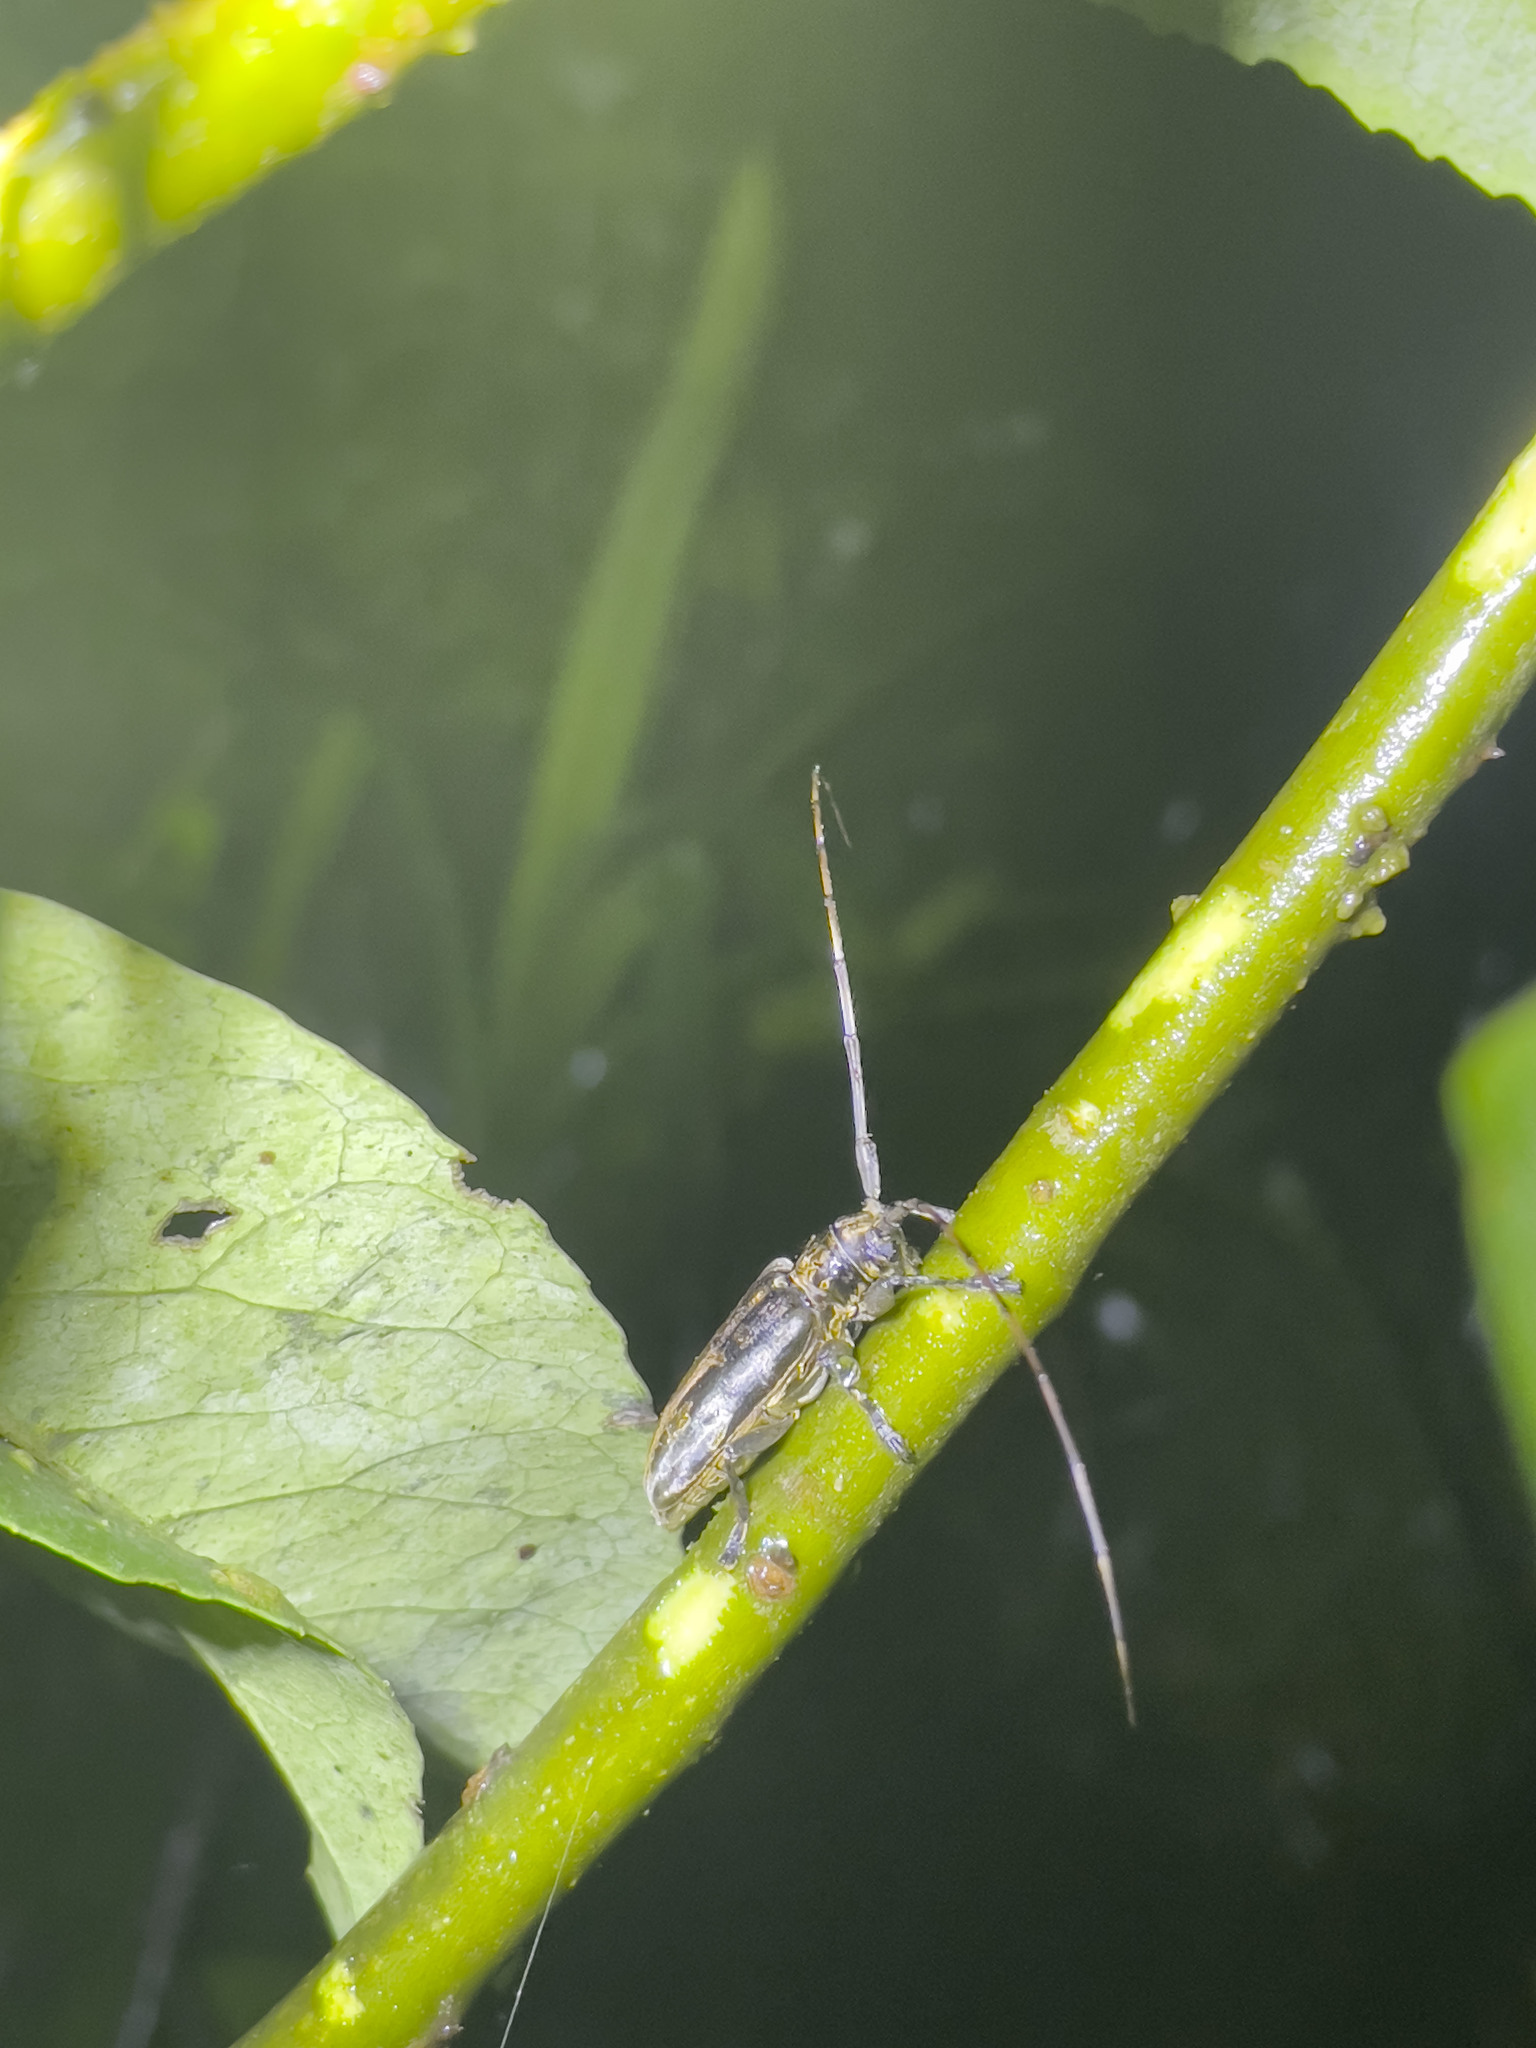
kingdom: Animalia
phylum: Arthropoda
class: Insecta
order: Coleoptera
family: Cerambycidae
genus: Acalolepta
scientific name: Acalolepta speciosa
